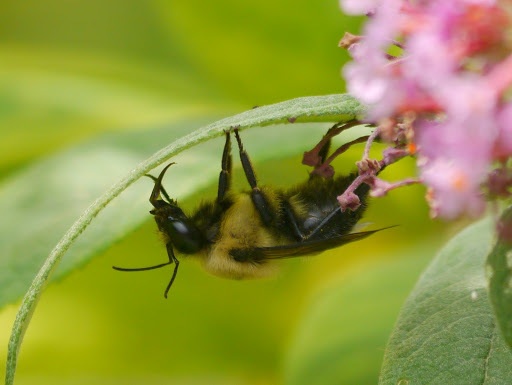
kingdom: Animalia
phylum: Arthropoda
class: Insecta
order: Hymenoptera
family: Apidae
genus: Bombus
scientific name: Bombus griseocollis
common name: Brown-belted bumble bee
